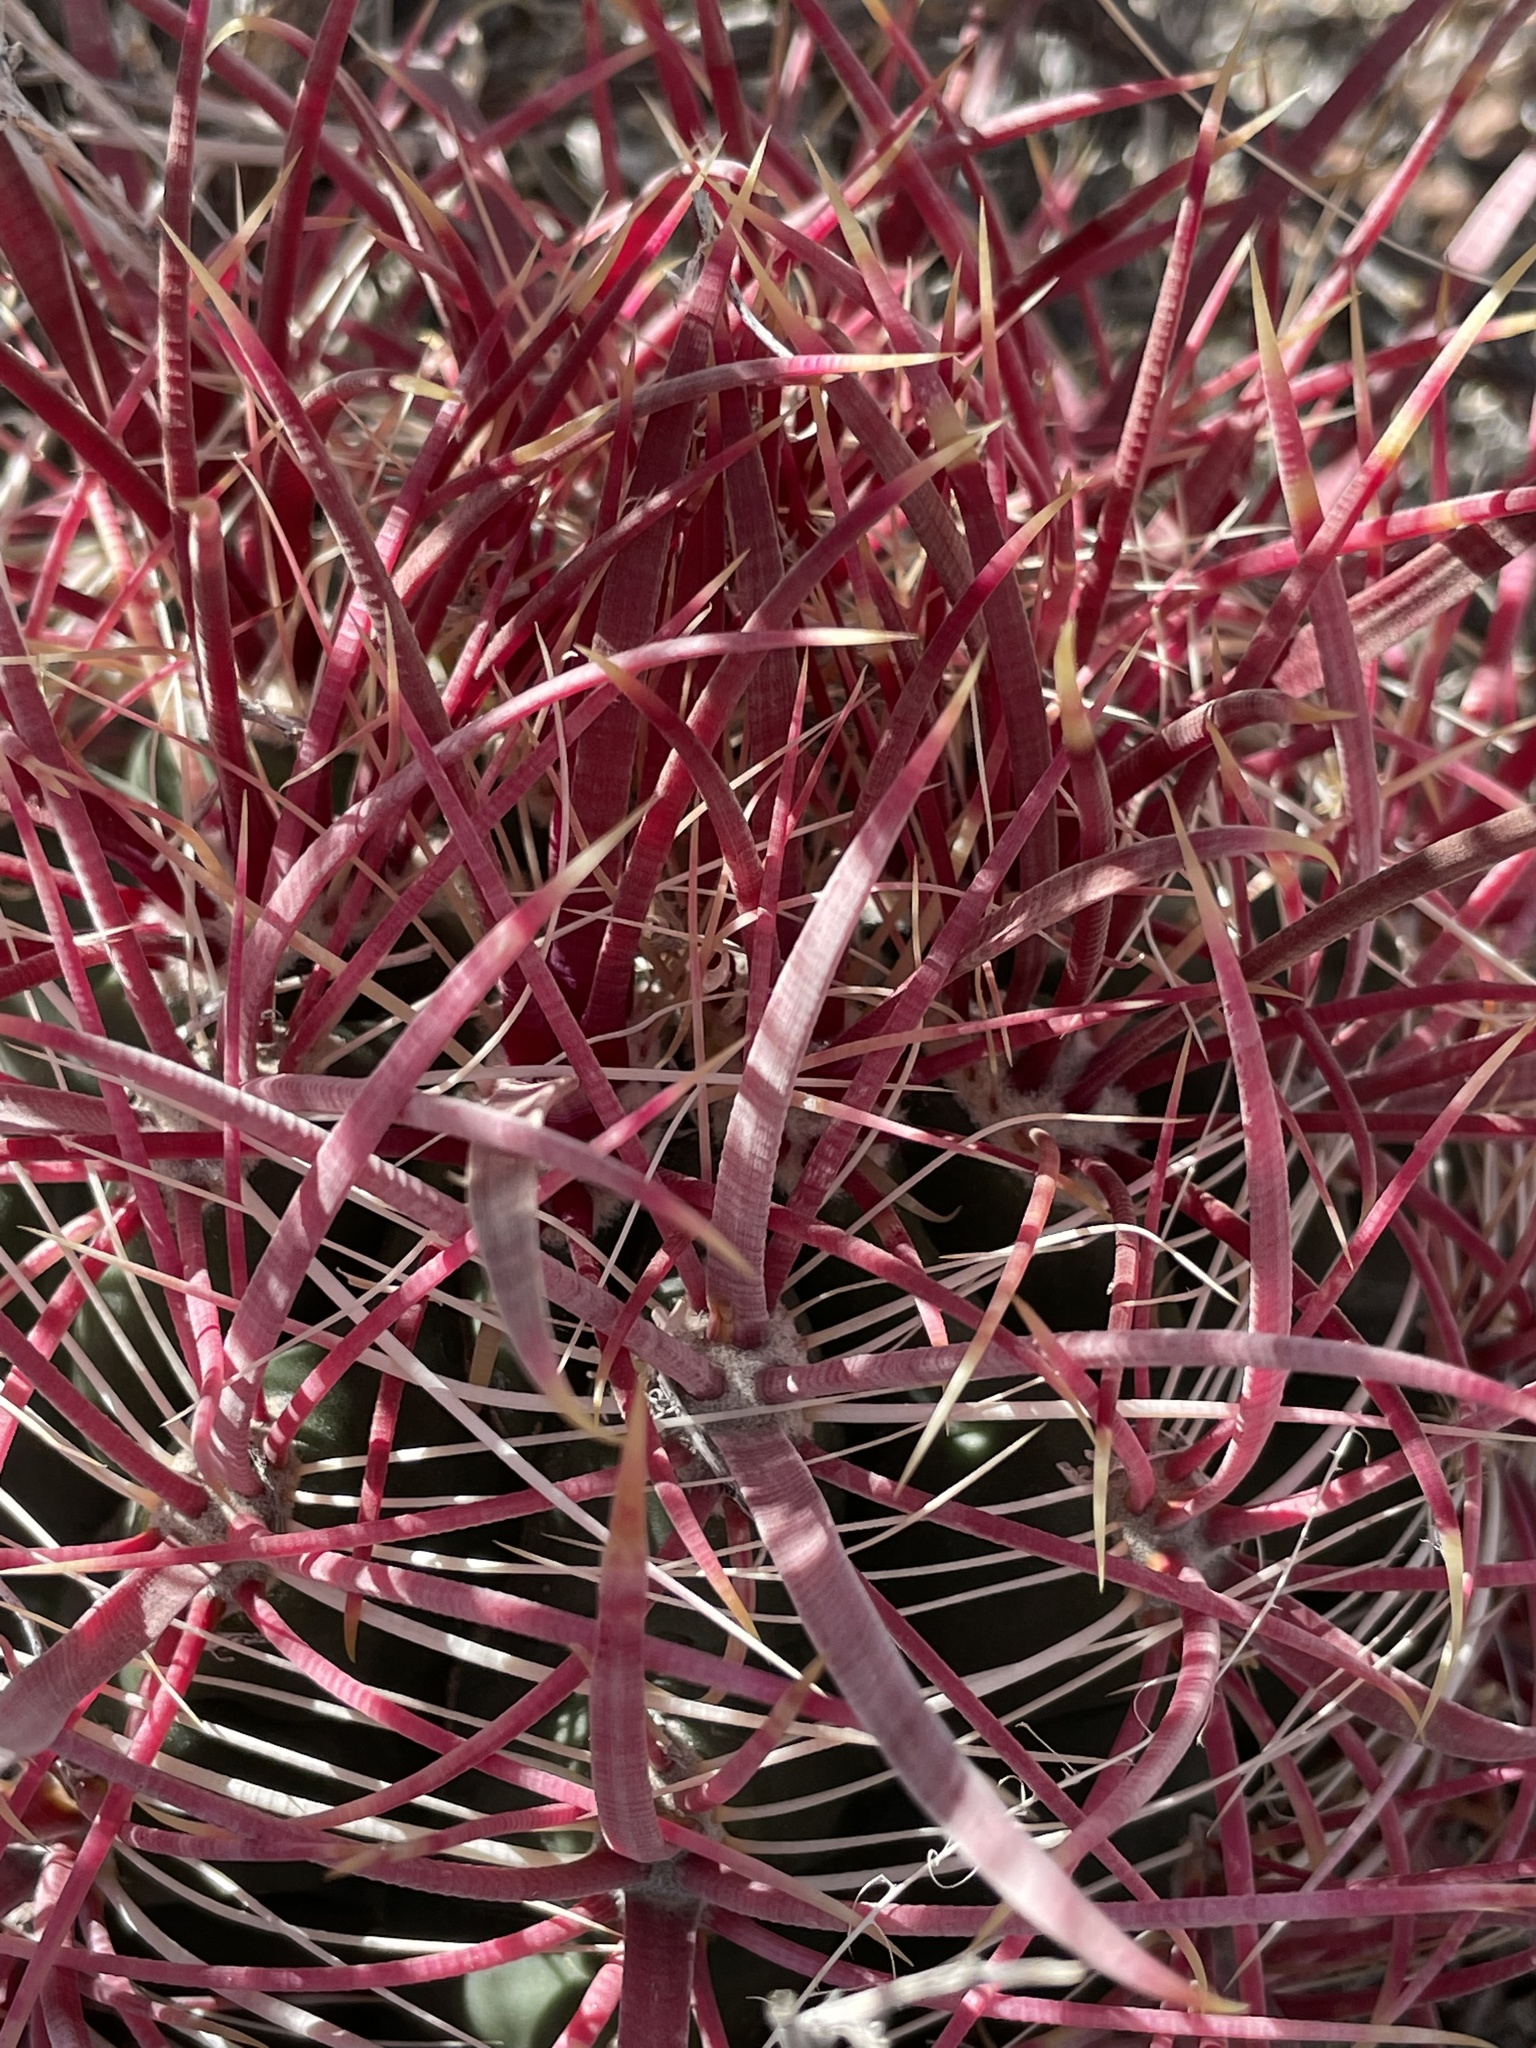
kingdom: Plantae
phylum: Tracheophyta
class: Magnoliopsida
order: Caryophyllales
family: Cactaceae
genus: Ferocactus
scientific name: Ferocactus cylindraceus
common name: California barrel cactus
